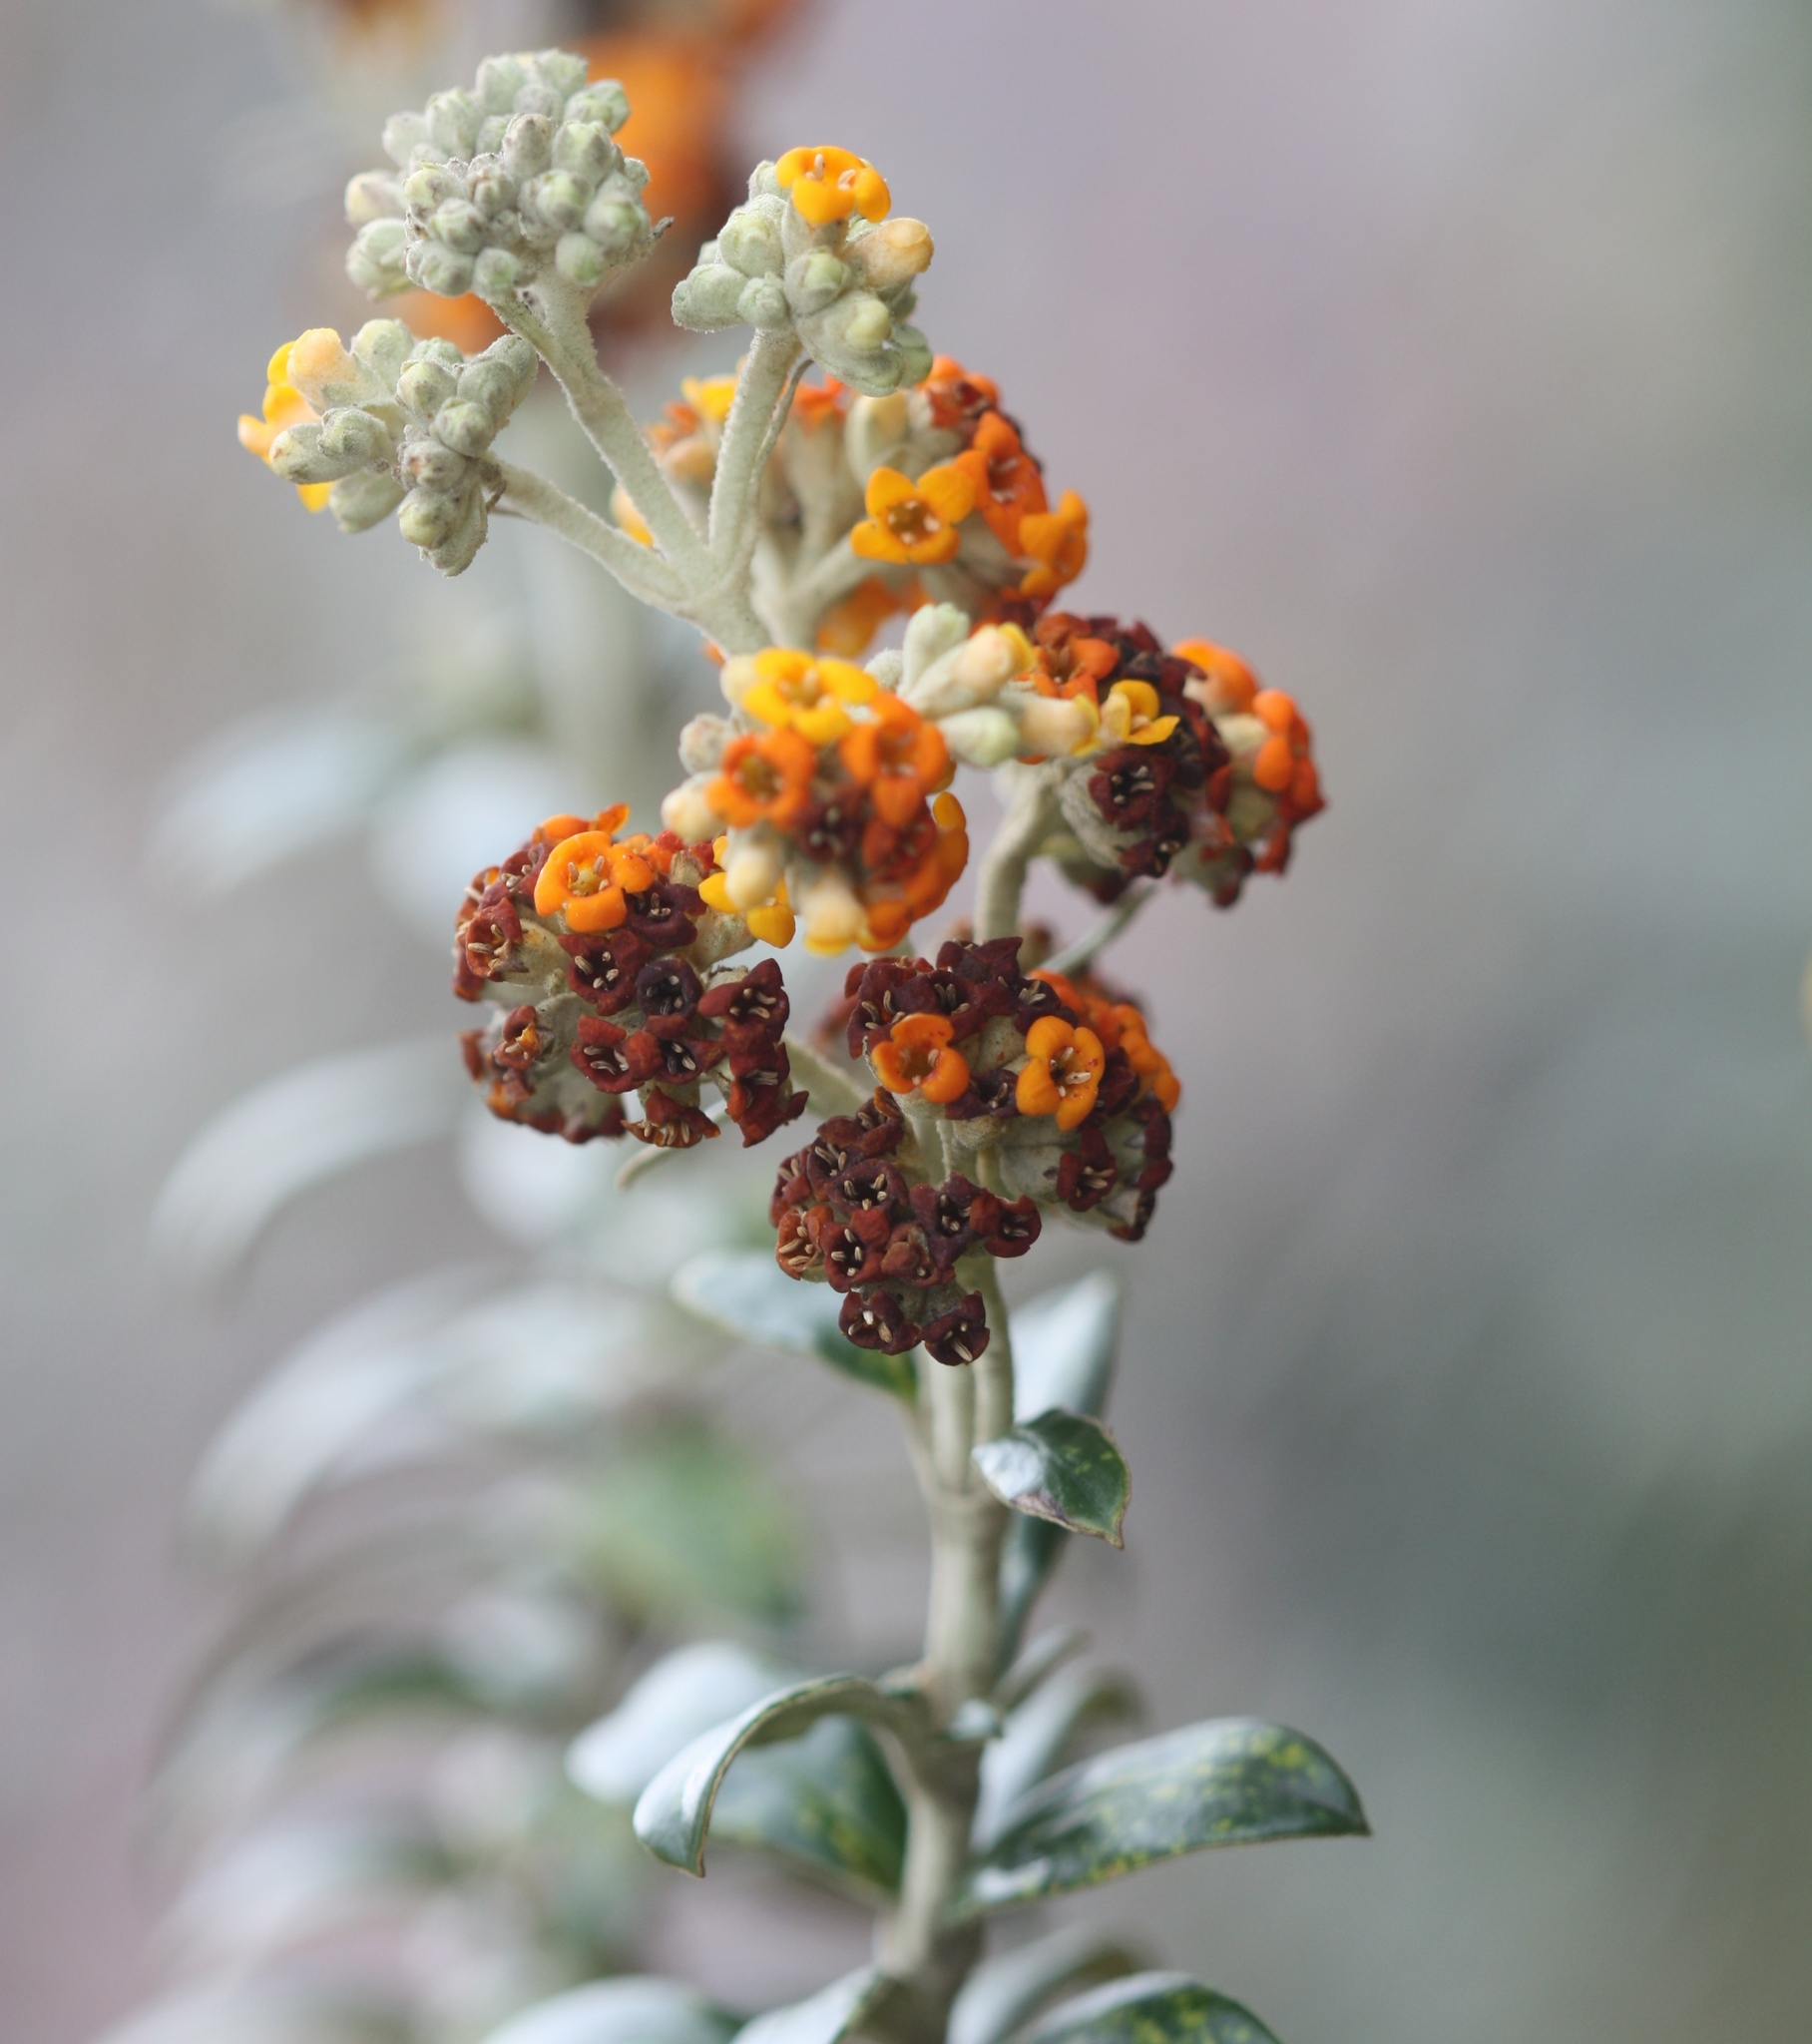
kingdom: Plantae
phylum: Tracheophyta
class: Magnoliopsida
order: Lamiales
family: Scrophulariaceae
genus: Buddleja
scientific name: Buddleja coriacea
